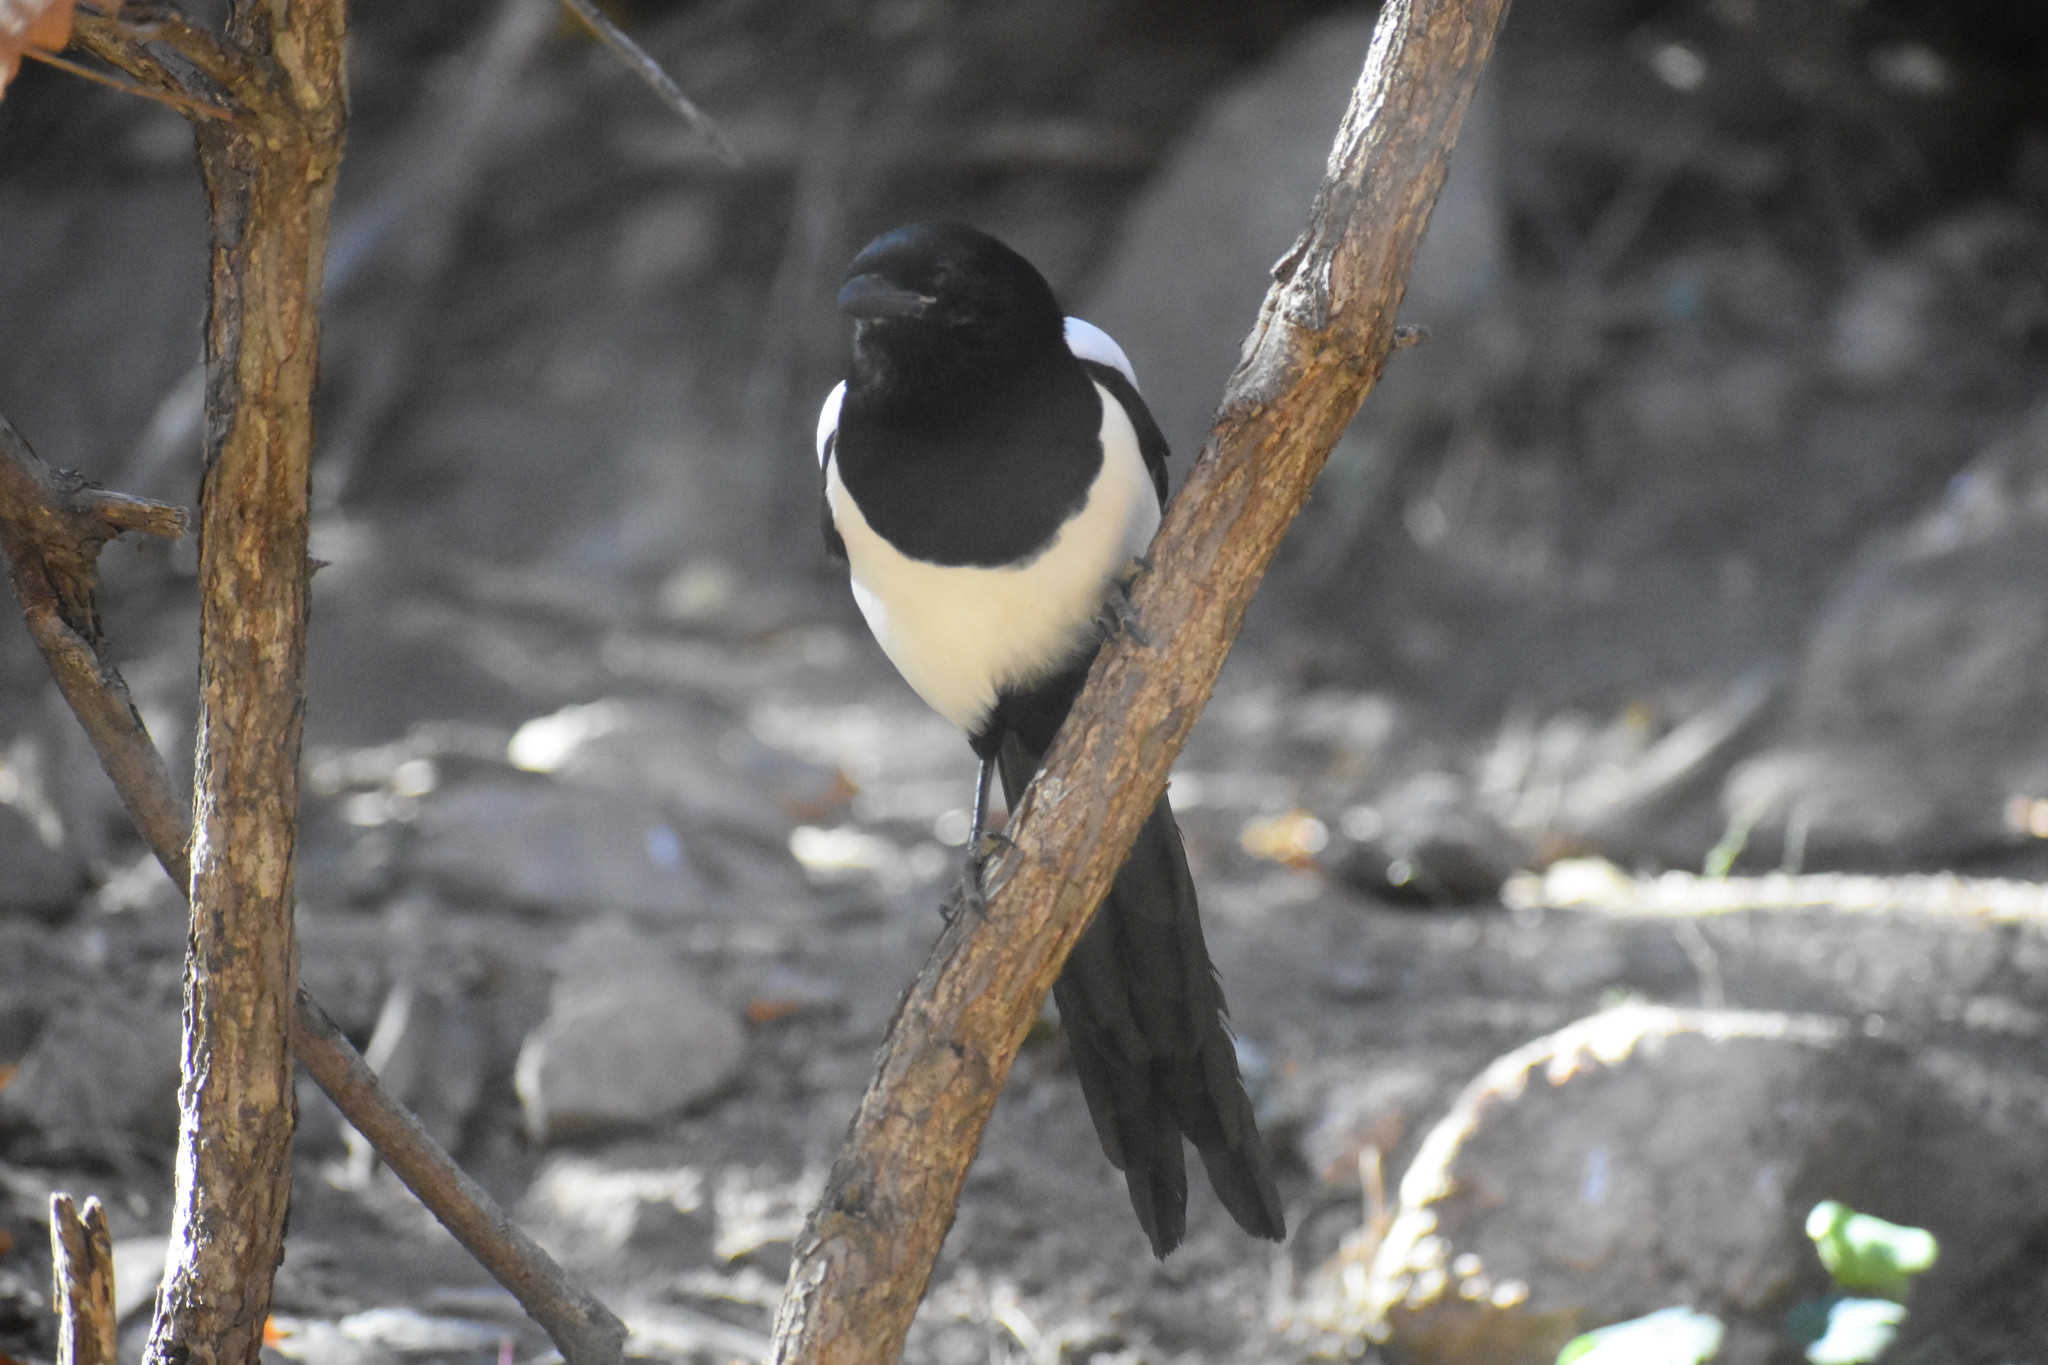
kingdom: Animalia
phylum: Chordata
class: Aves
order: Passeriformes
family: Corvidae
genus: Pica
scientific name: Pica hudsonia
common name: Black-billed magpie
